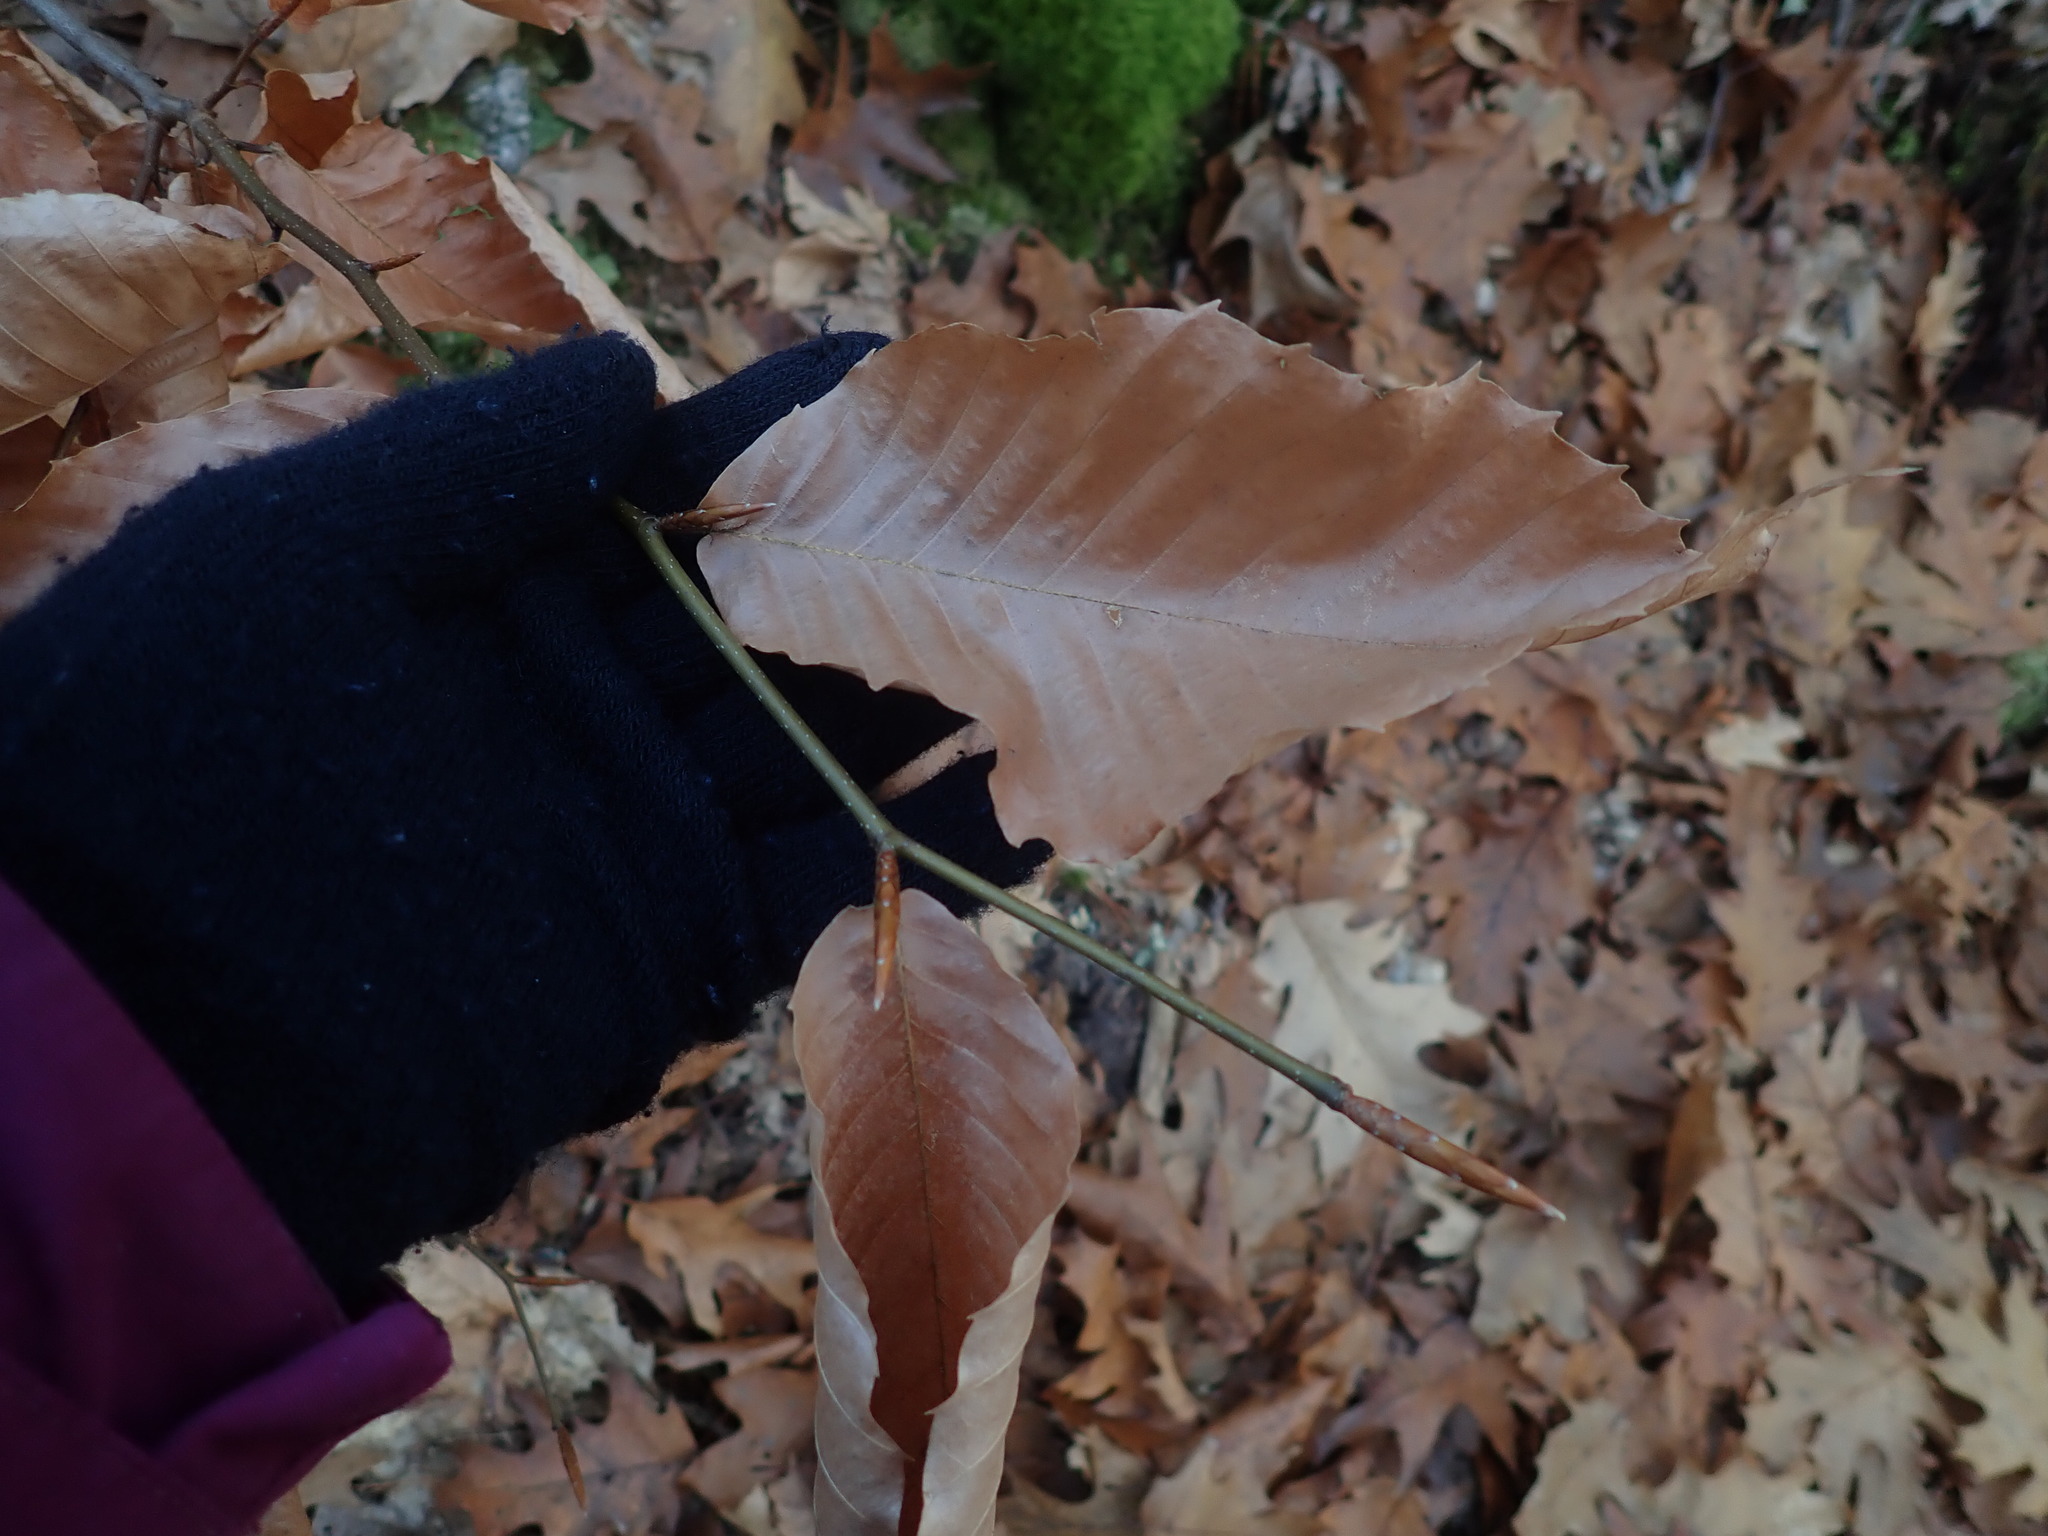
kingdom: Plantae
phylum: Tracheophyta
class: Magnoliopsida
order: Fagales
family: Fagaceae
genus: Fagus
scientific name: Fagus grandifolia
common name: American beech
